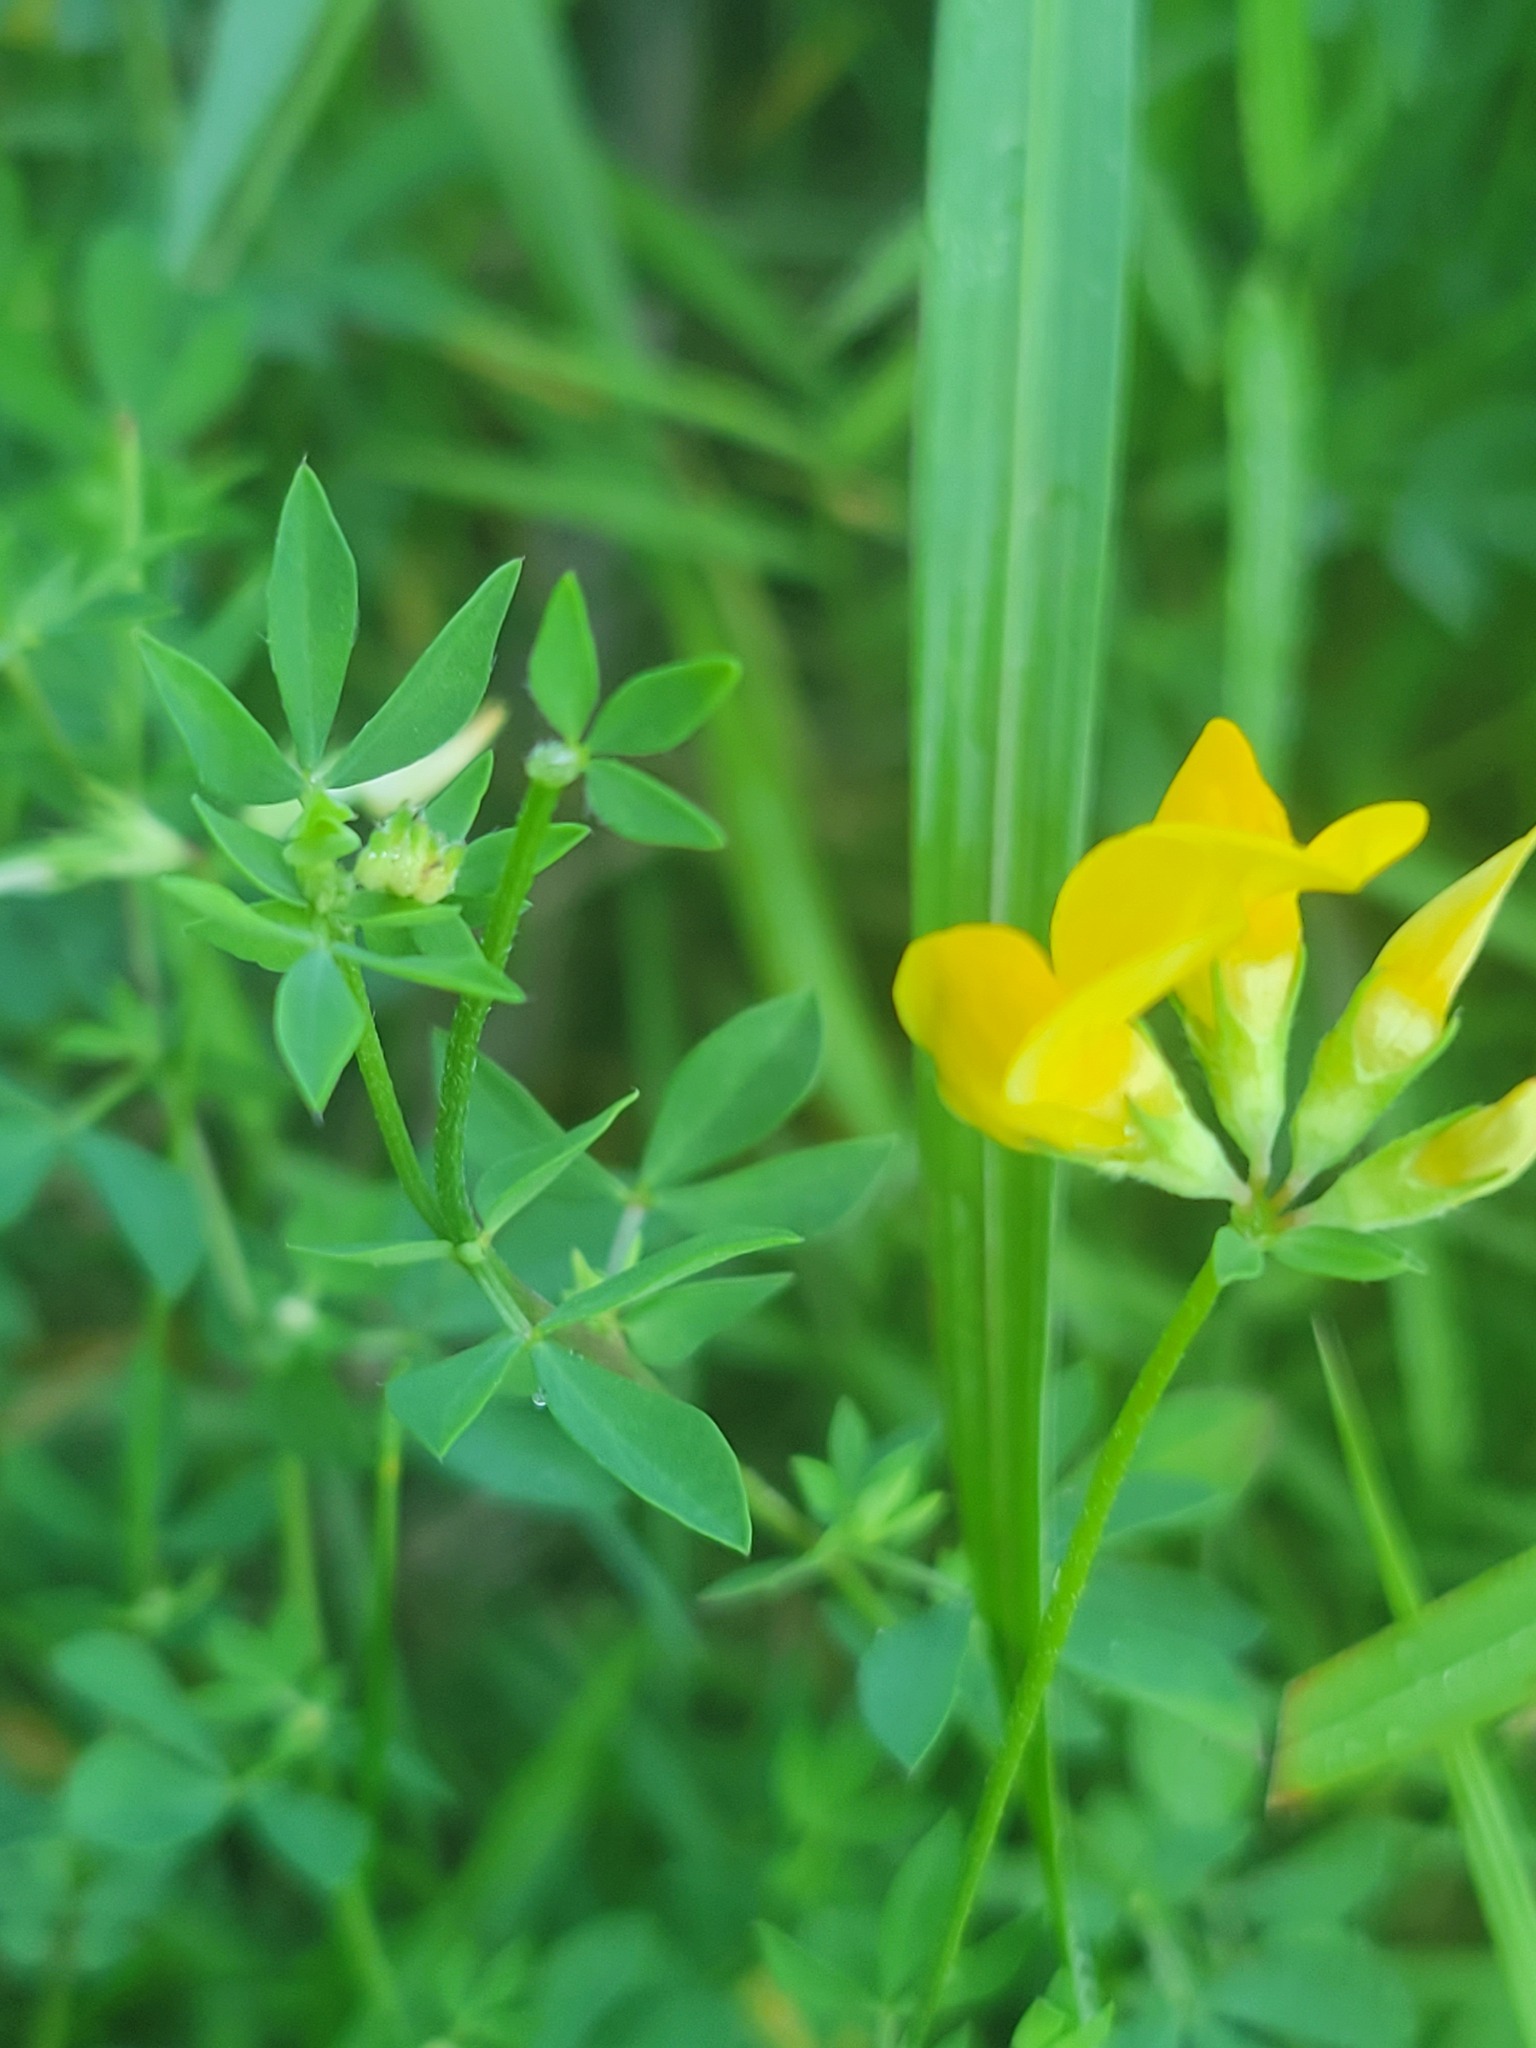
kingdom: Plantae
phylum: Tracheophyta
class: Magnoliopsida
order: Fabales
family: Fabaceae
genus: Lotus
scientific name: Lotus corniculatus
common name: Common bird's-foot-trefoil
